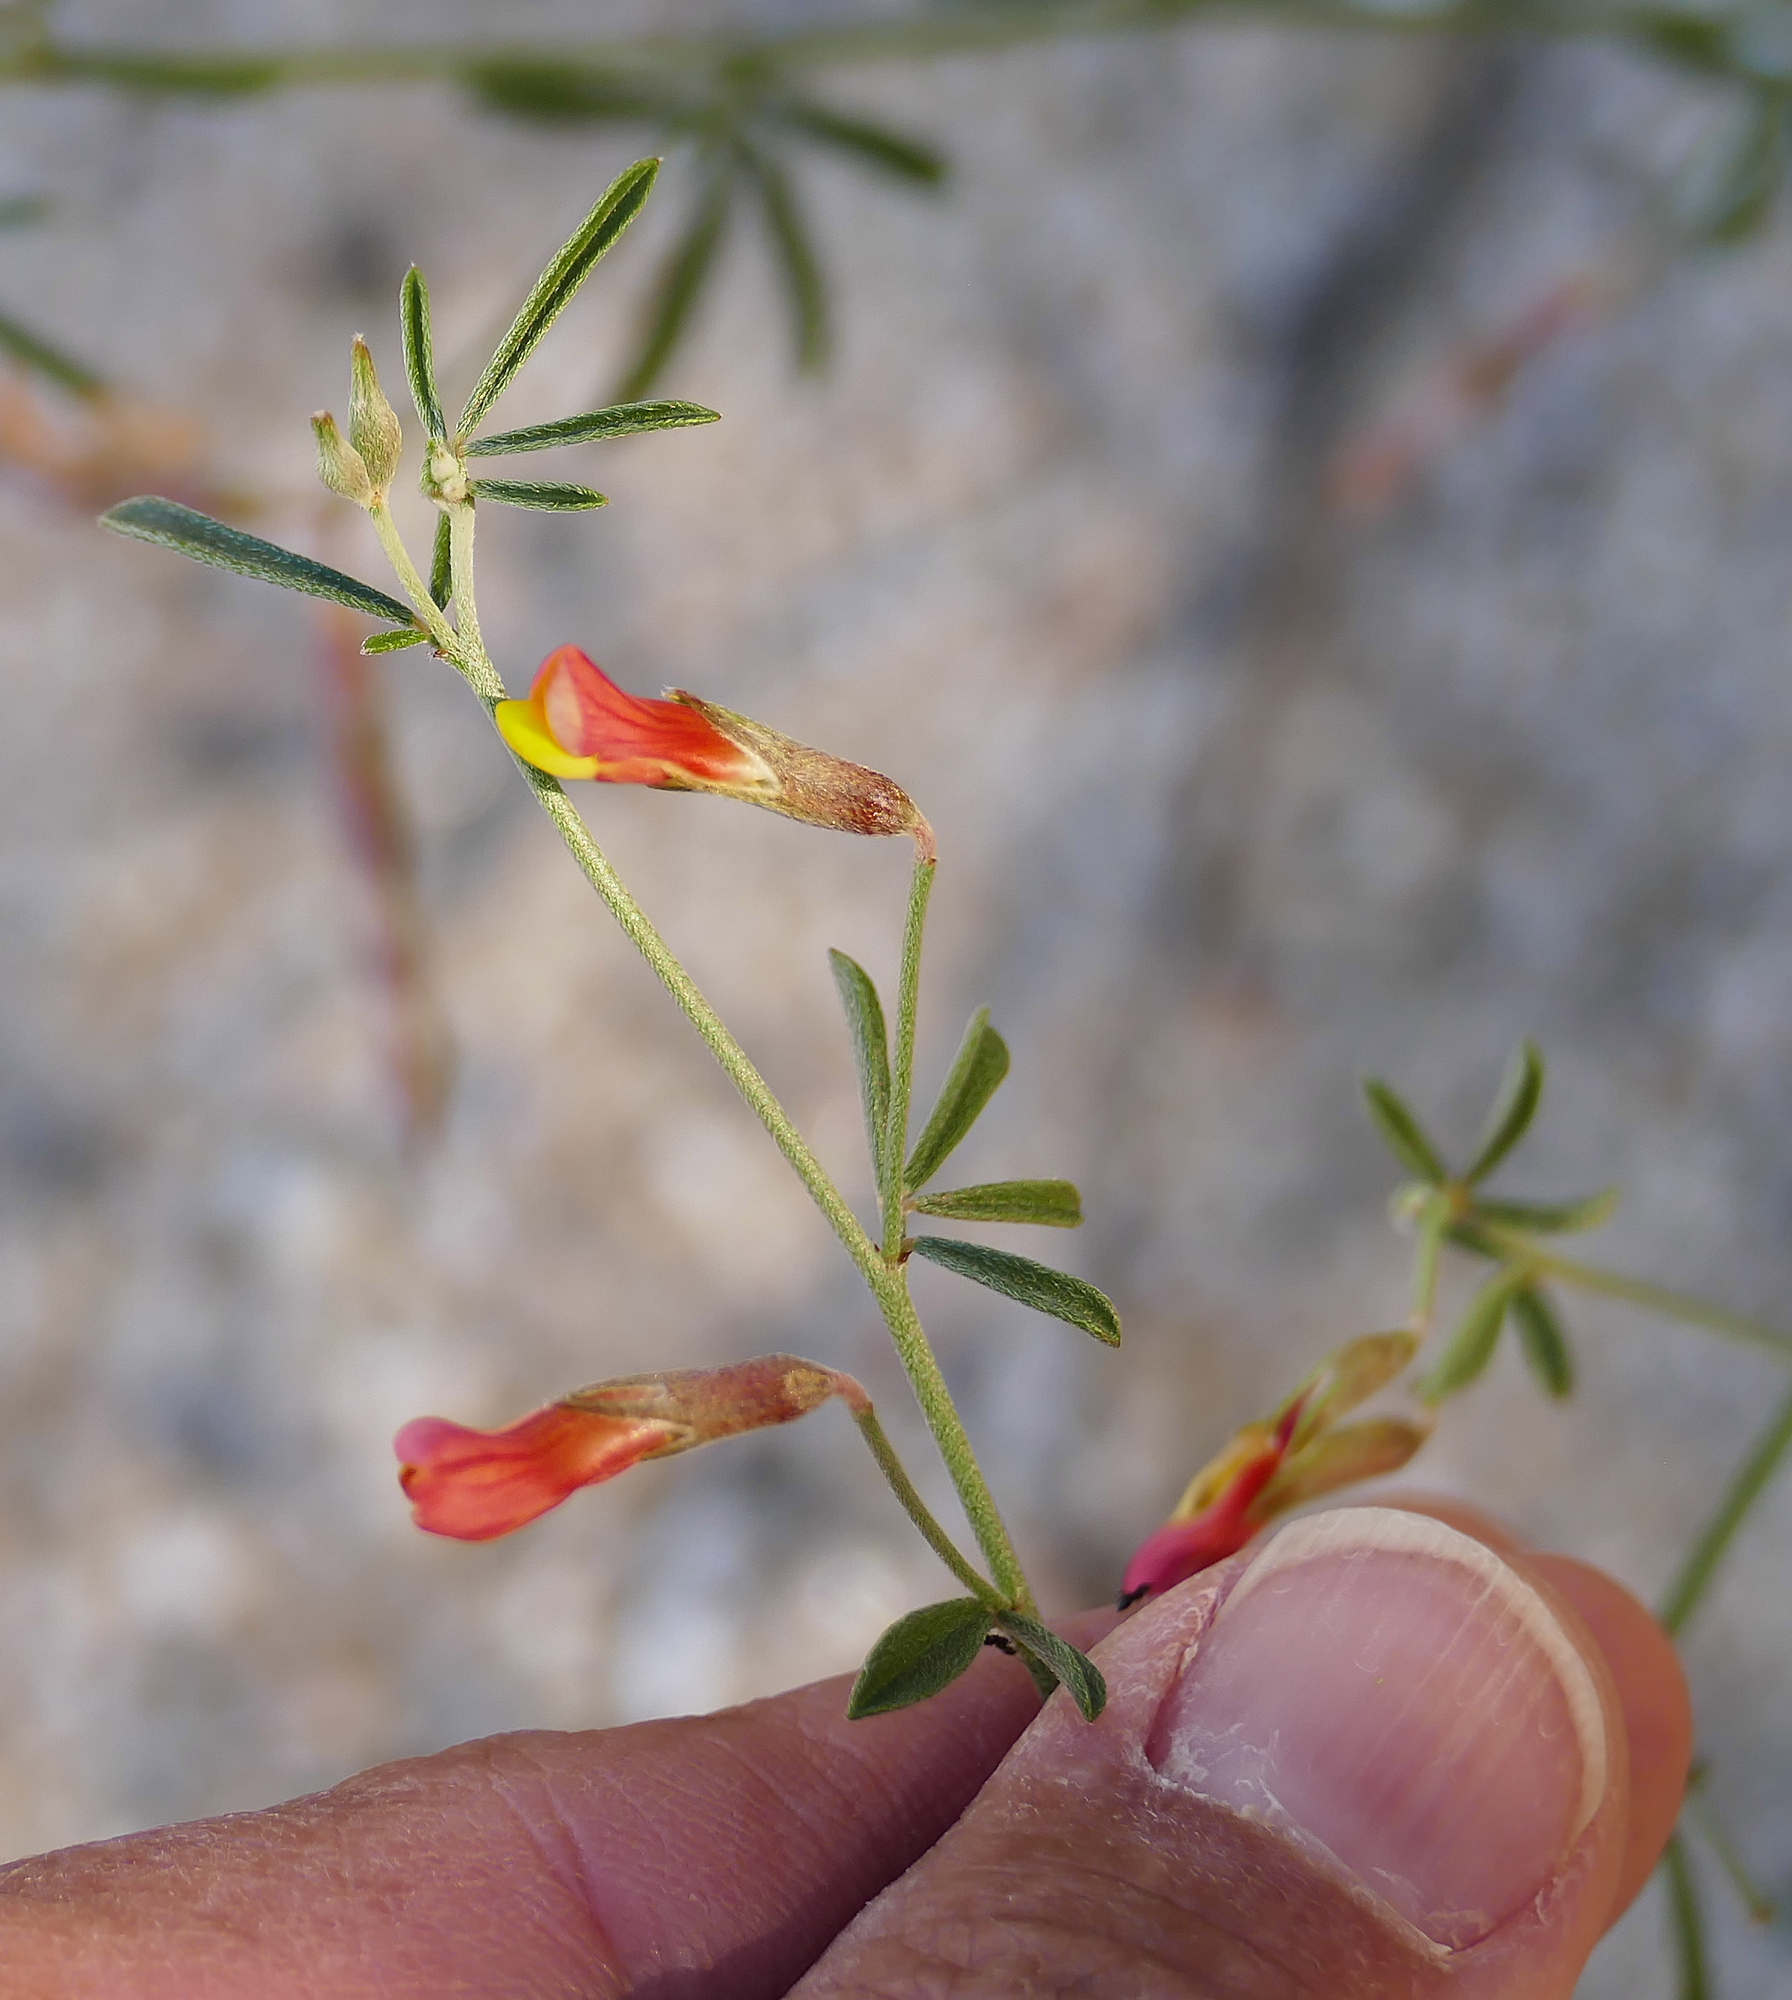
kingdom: Plantae
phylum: Tracheophyta
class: Magnoliopsida
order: Fabales
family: Fabaceae
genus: Acmispon
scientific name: Acmispon oroboides
